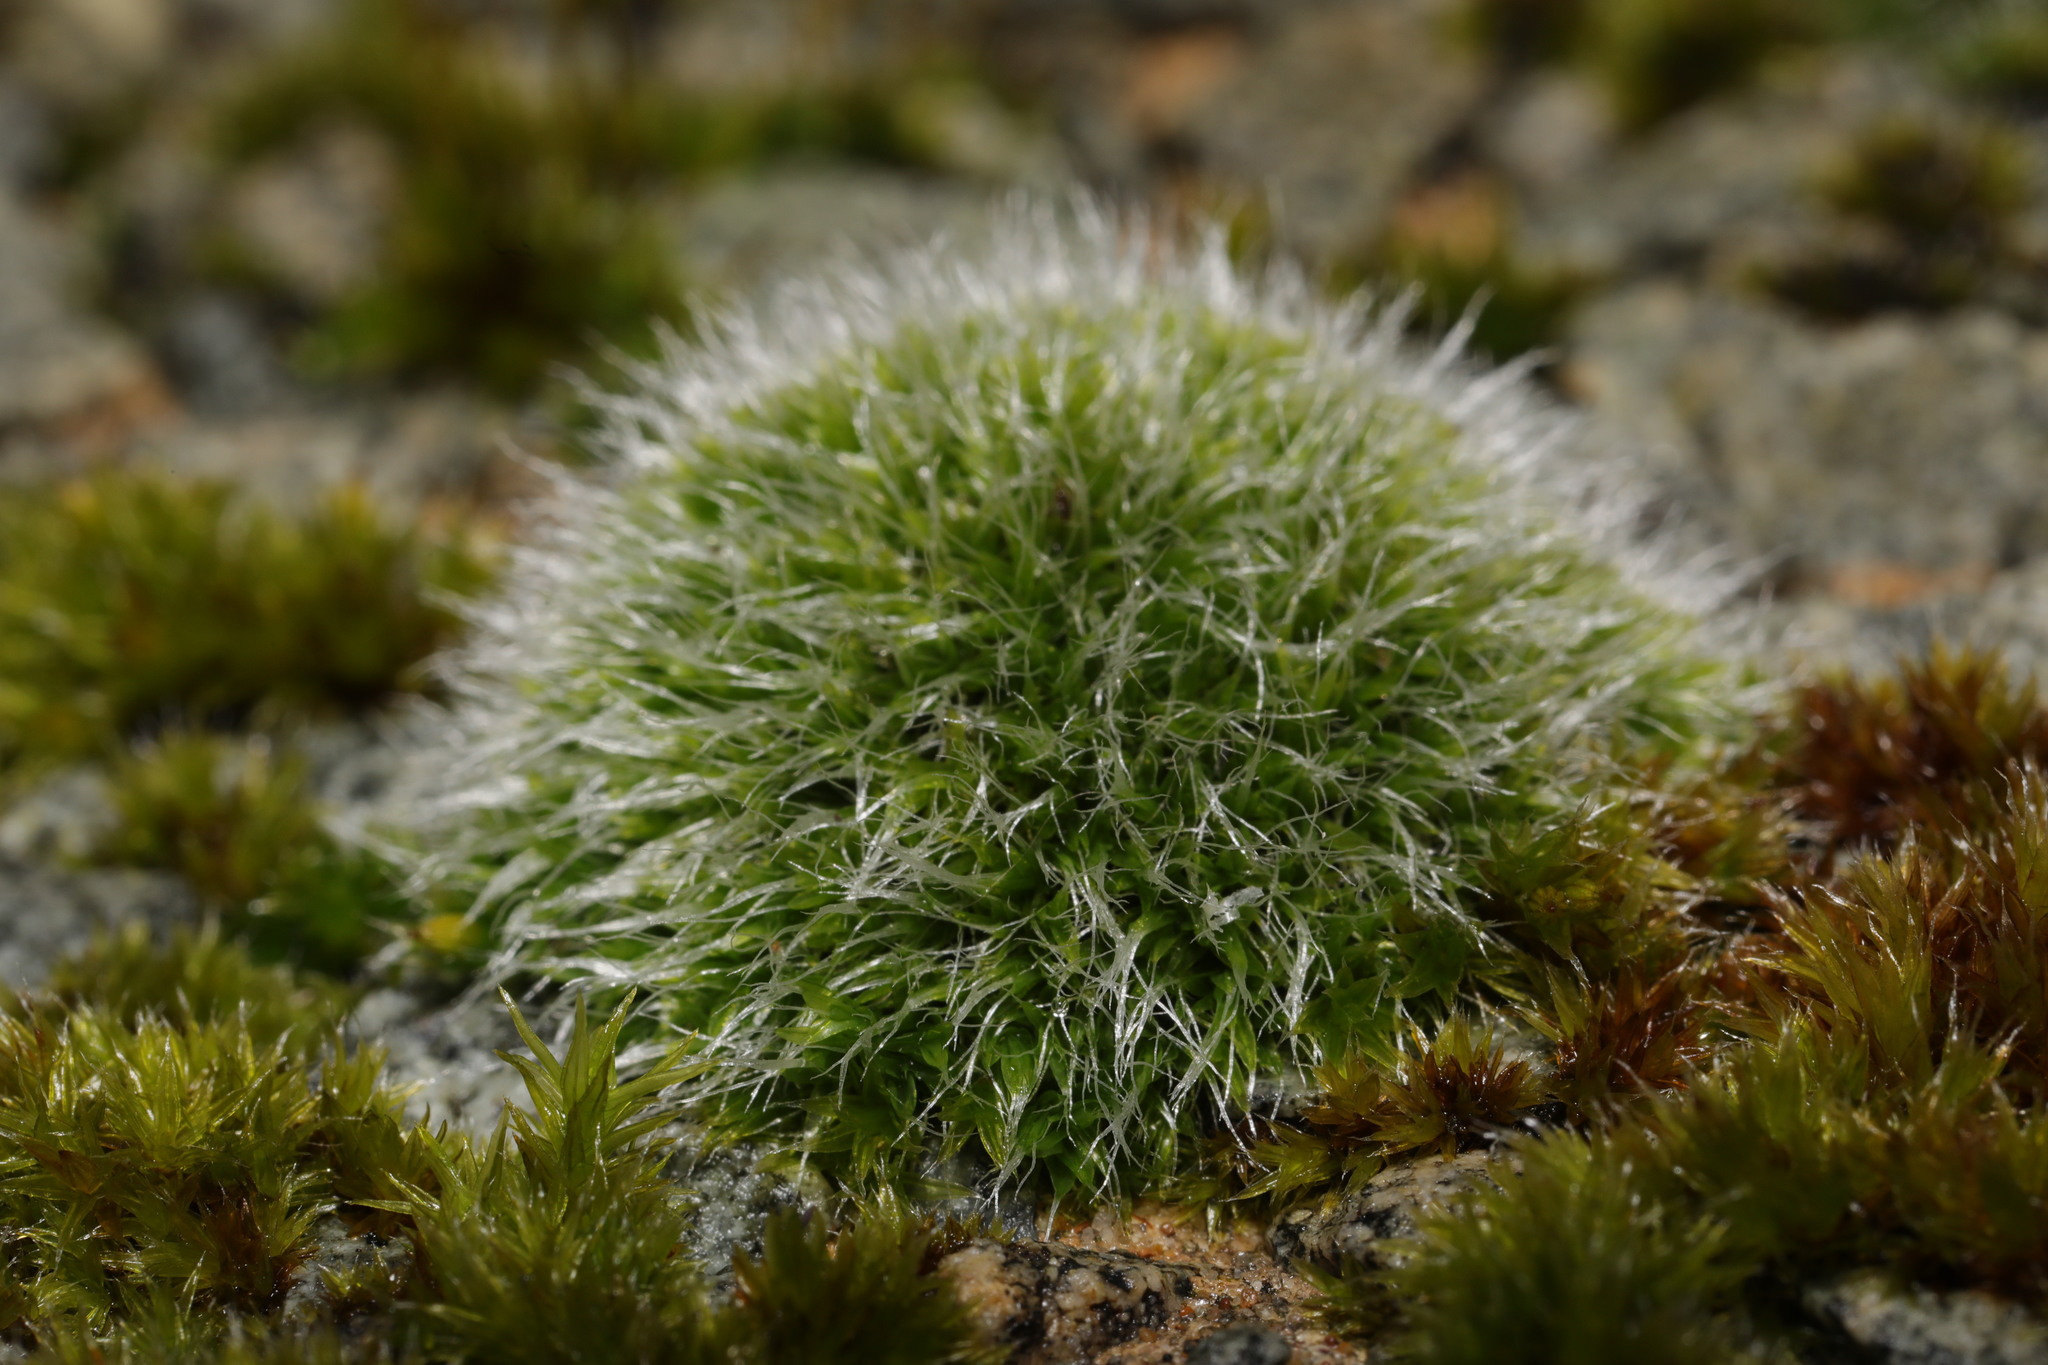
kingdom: Plantae
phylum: Bryophyta
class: Bryopsida
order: Grimmiales
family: Grimmiaceae
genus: Grimmia
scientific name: Grimmia pulvinata
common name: Grey-cushioned grimmia
